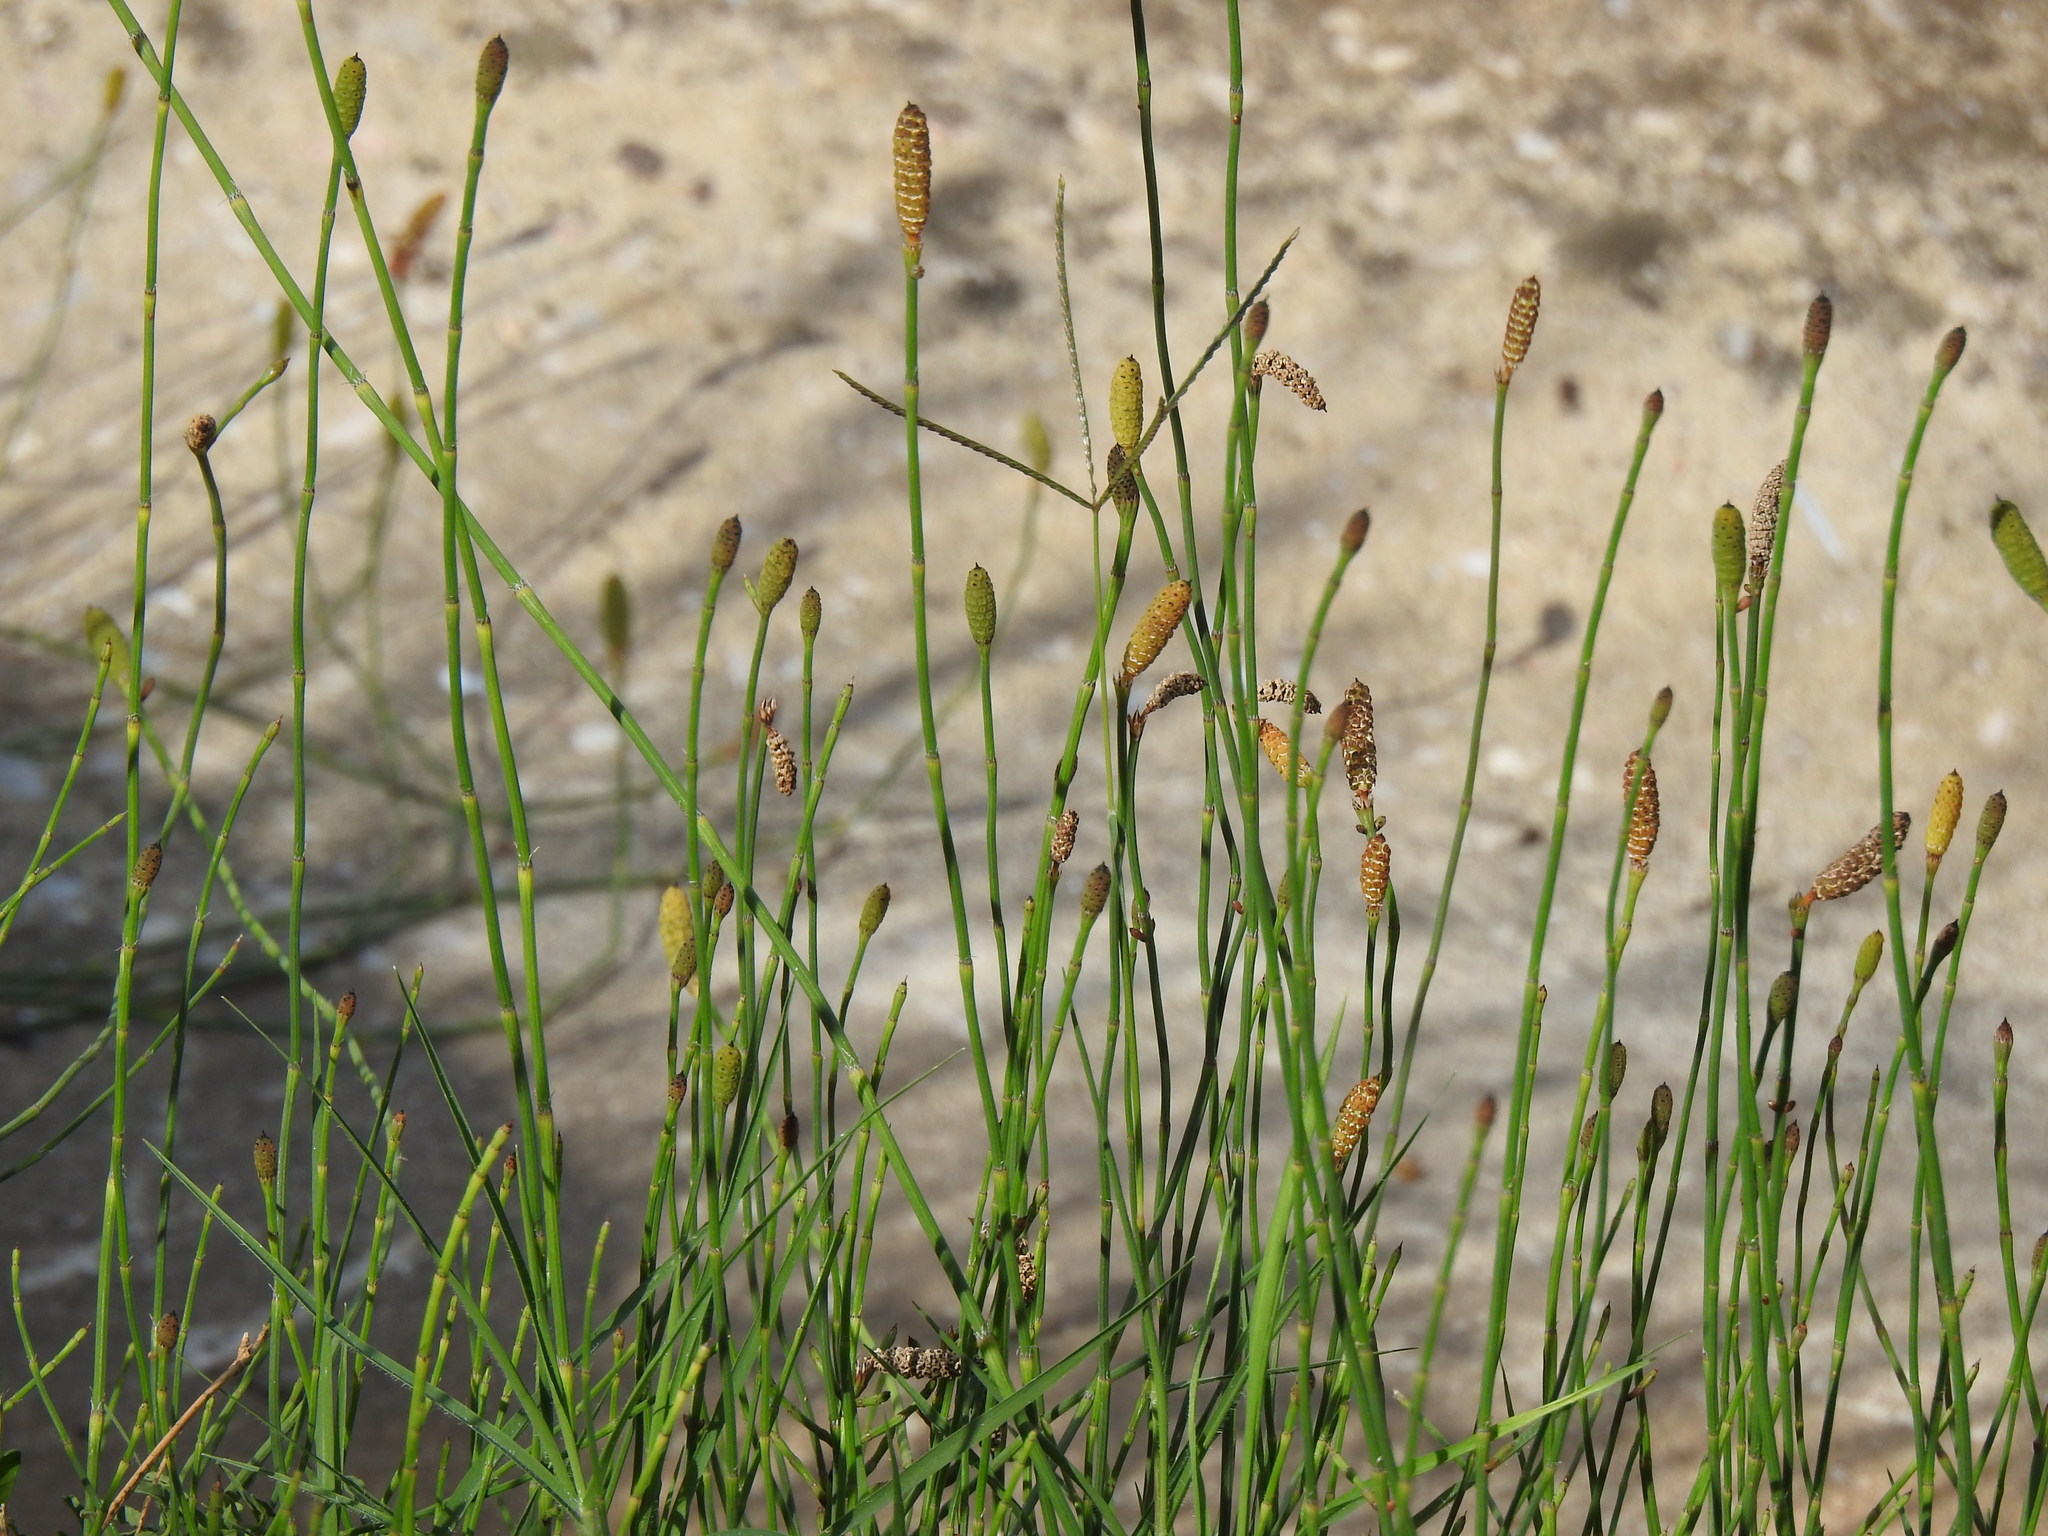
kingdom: Plantae
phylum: Tracheophyta
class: Polypodiopsida
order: Equisetales
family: Equisetaceae
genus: Equisetum
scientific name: Equisetum ramosissimum
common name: Branched horsetail
